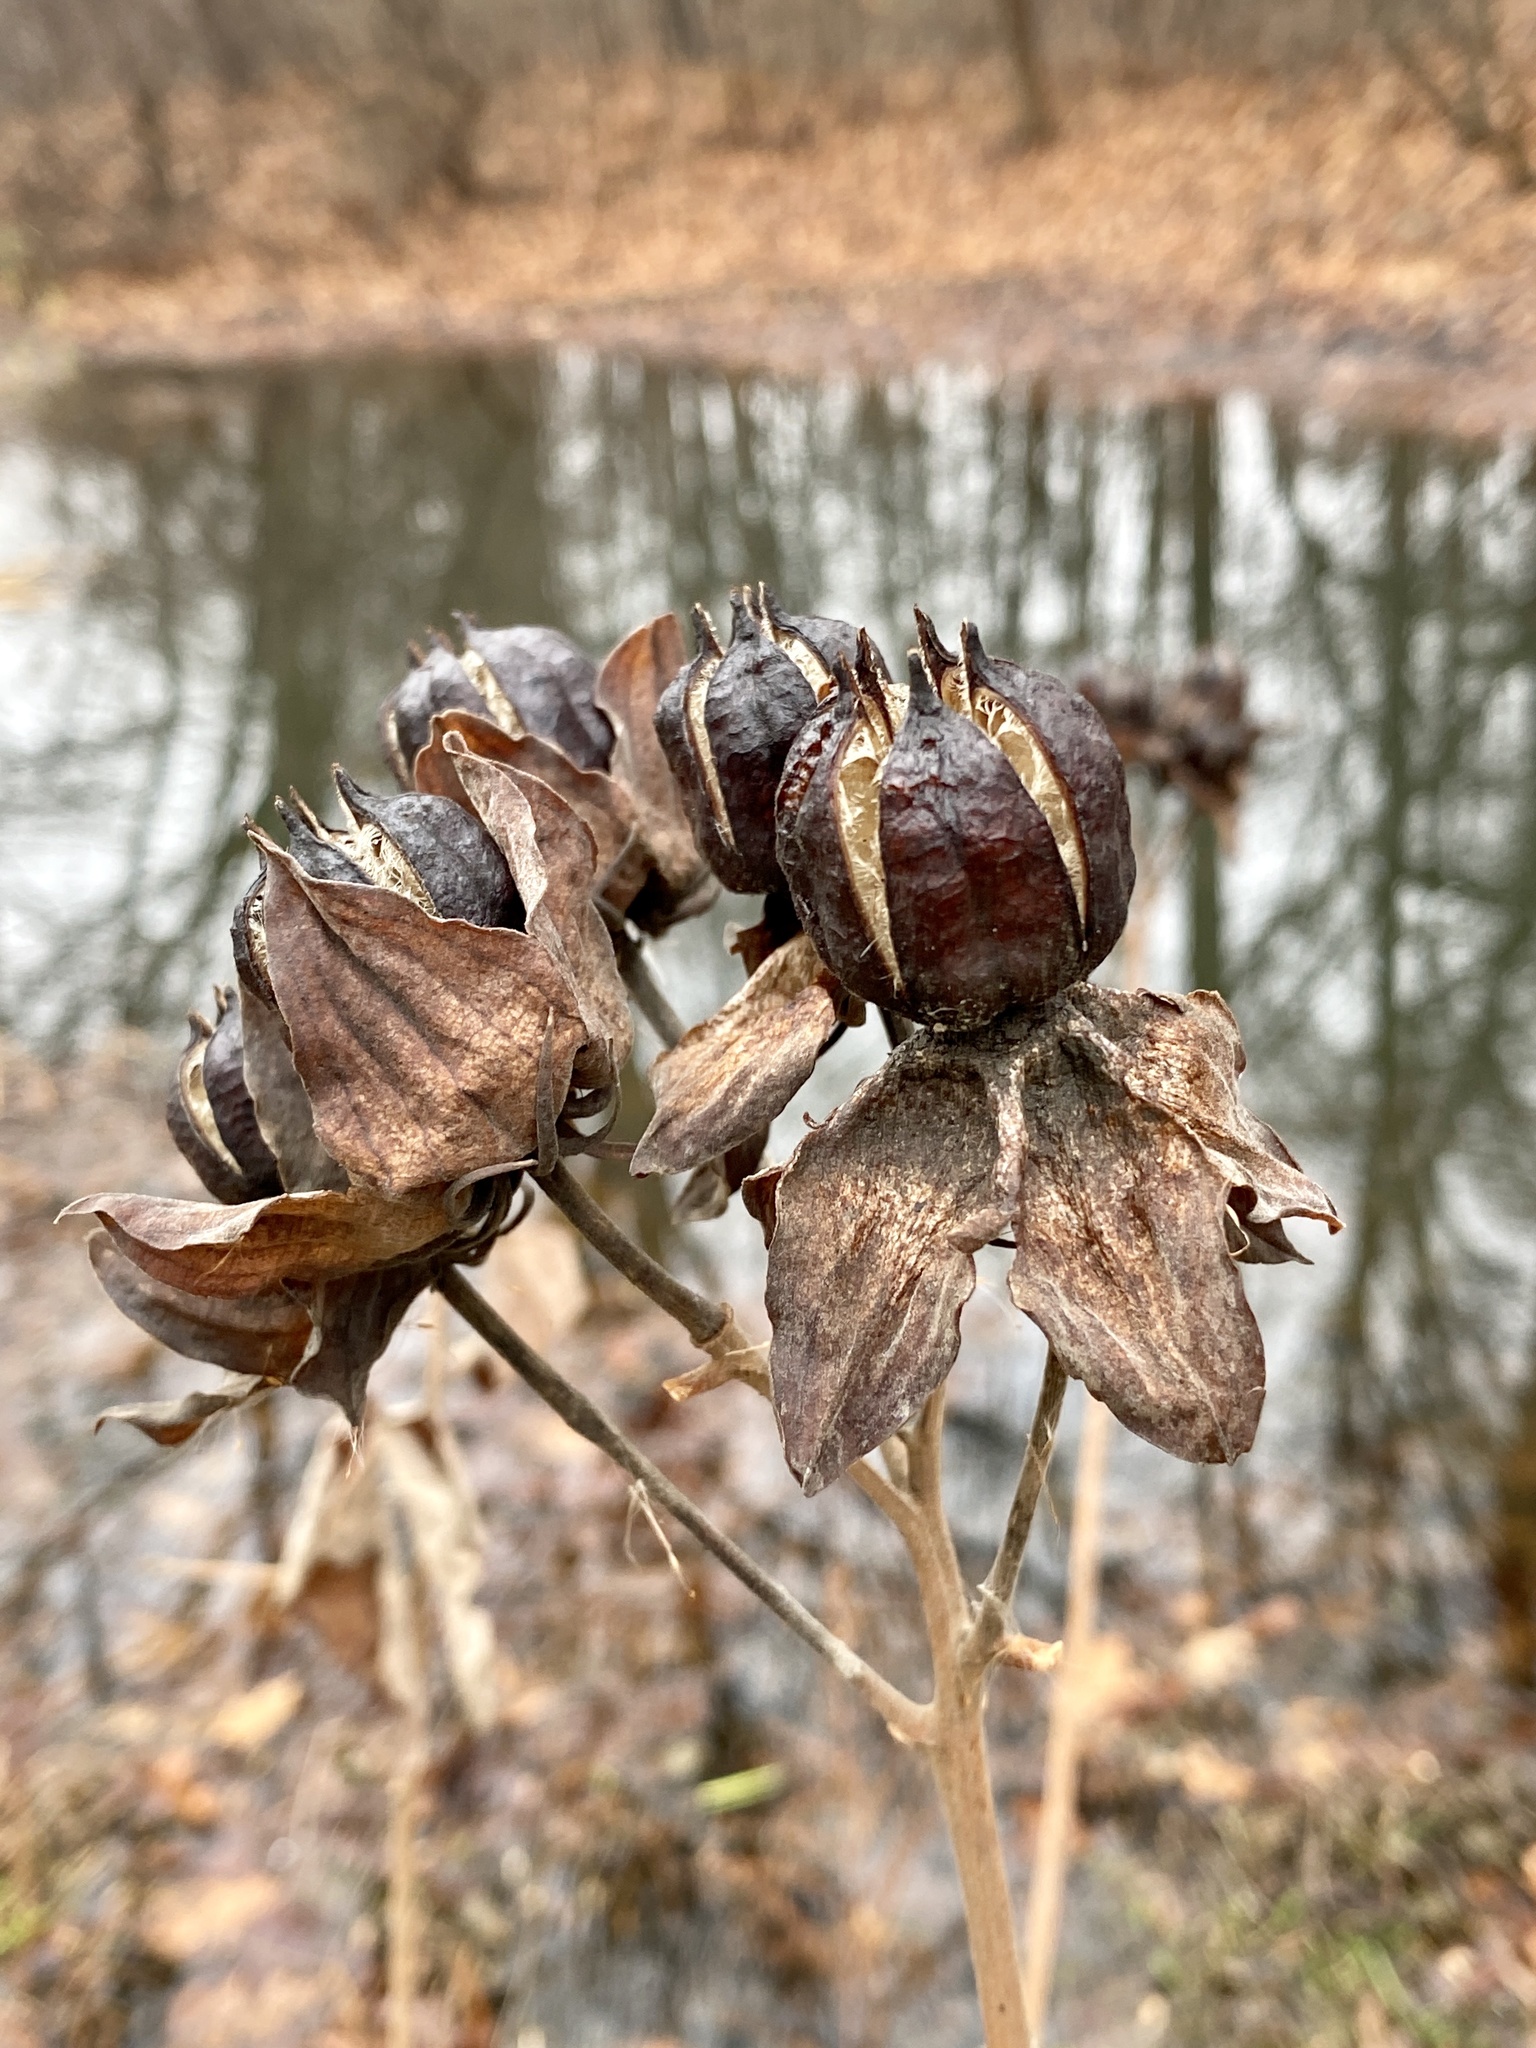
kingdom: Plantae
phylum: Tracheophyta
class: Magnoliopsida
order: Malvales
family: Malvaceae
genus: Hibiscus
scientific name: Hibiscus moscheutos
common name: Common rose-mallow
